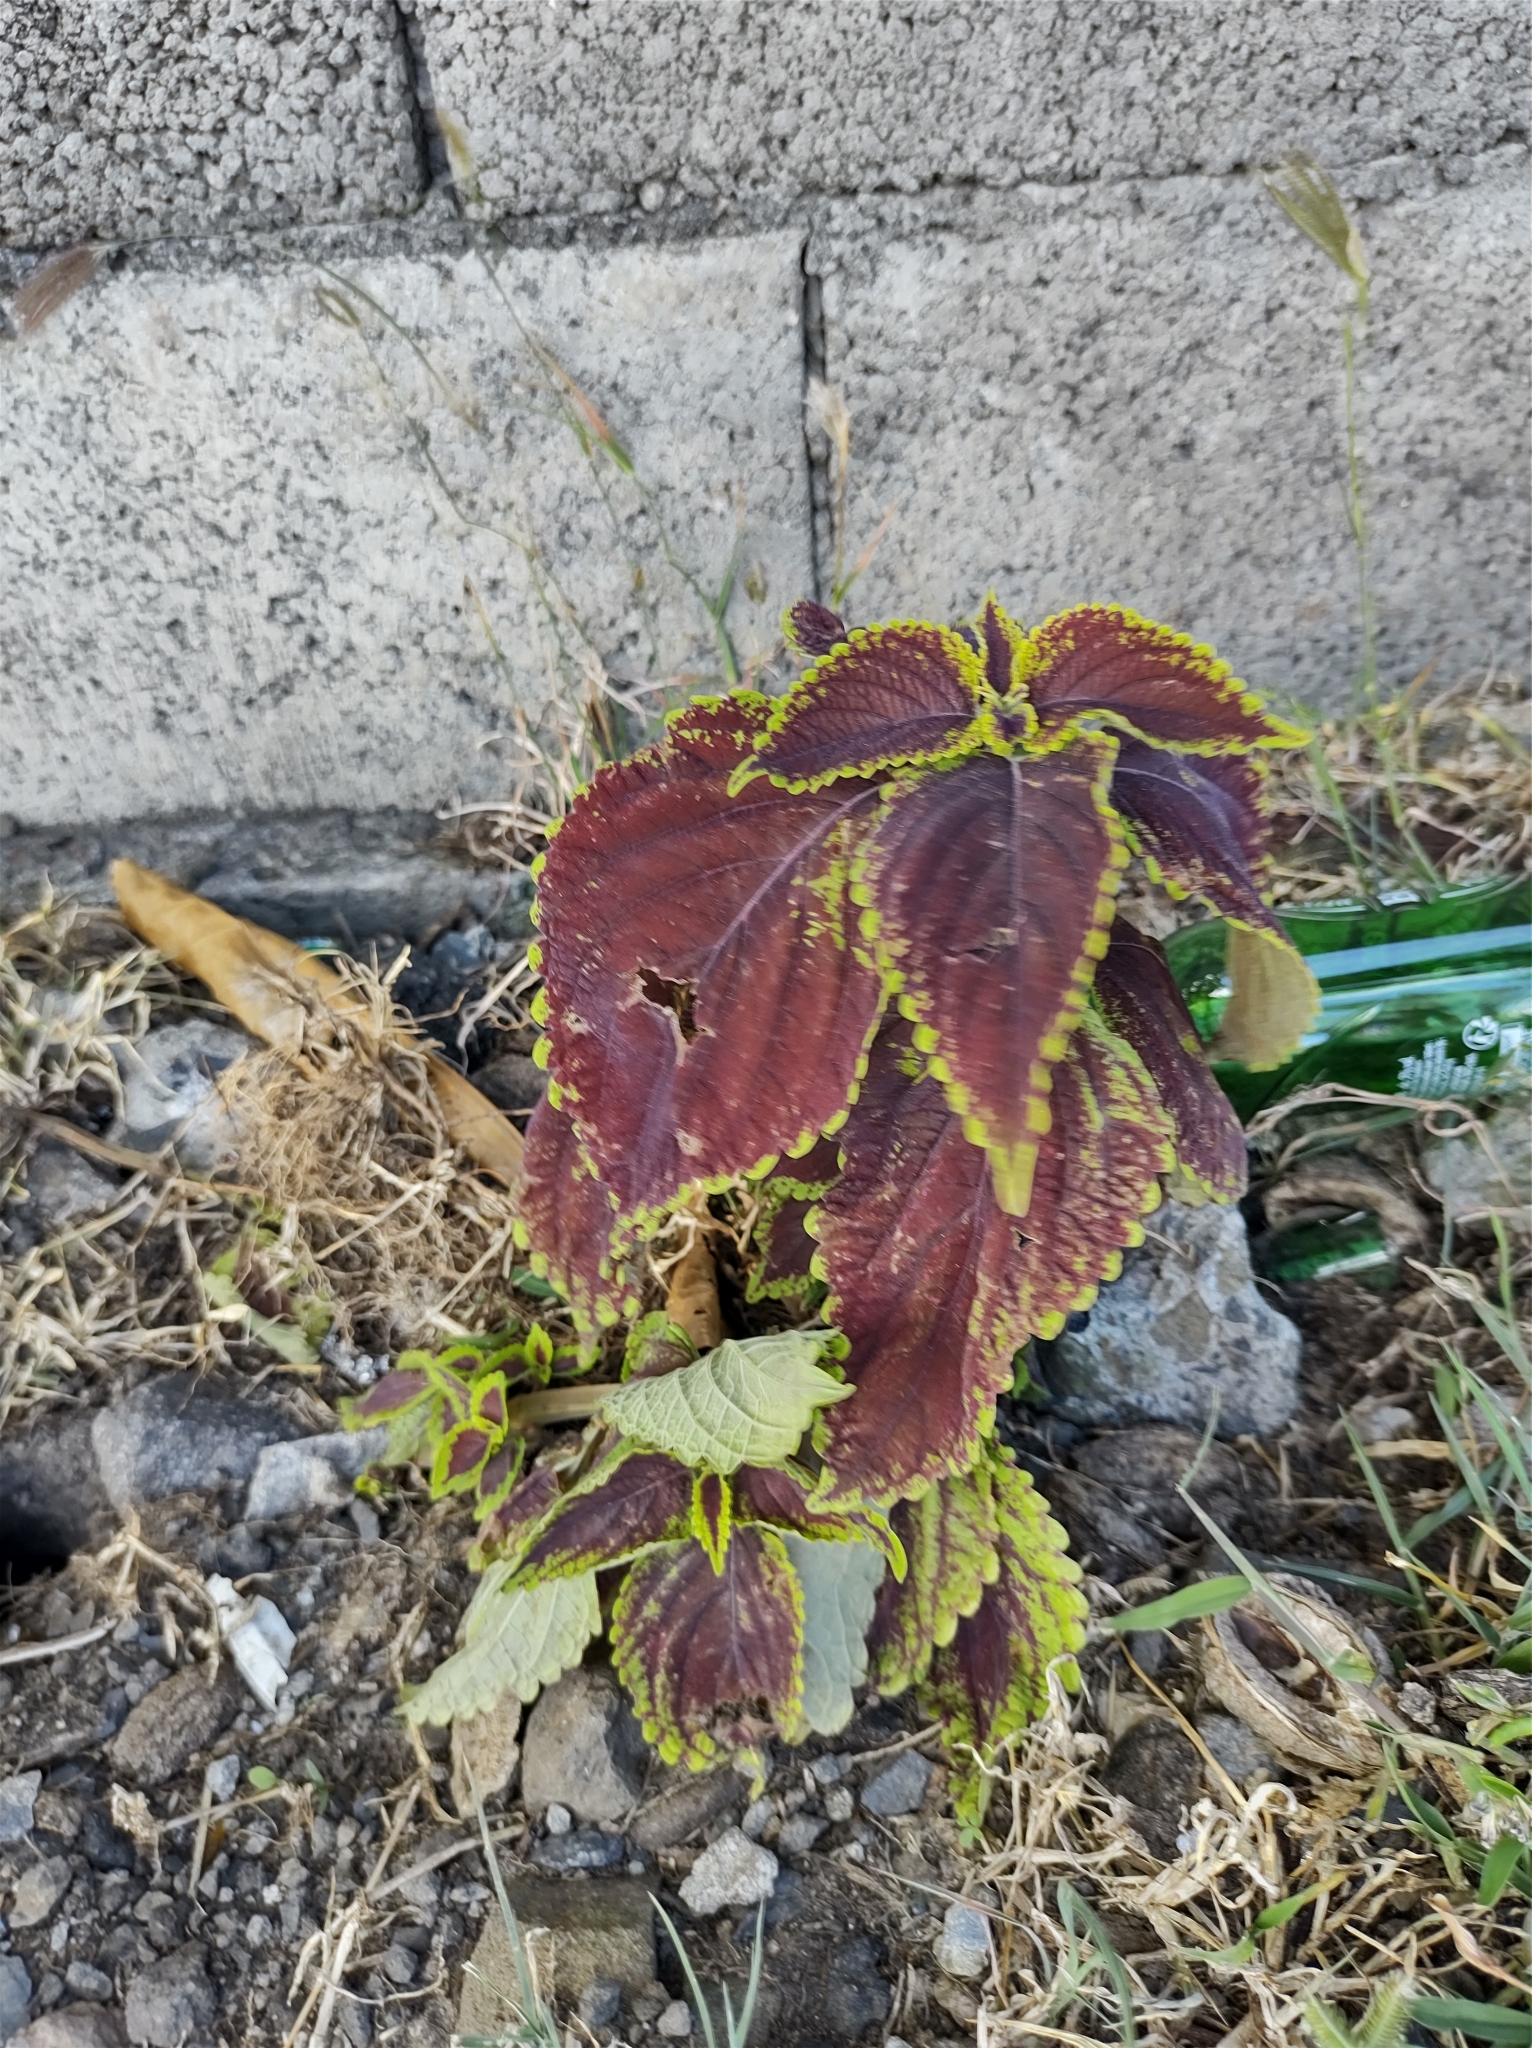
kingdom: Plantae
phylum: Tracheophyta
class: Magnoliopsida
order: Lamiales
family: Lamiaceae
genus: Coleus
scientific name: Coleus scutellarioides
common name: Coleus
